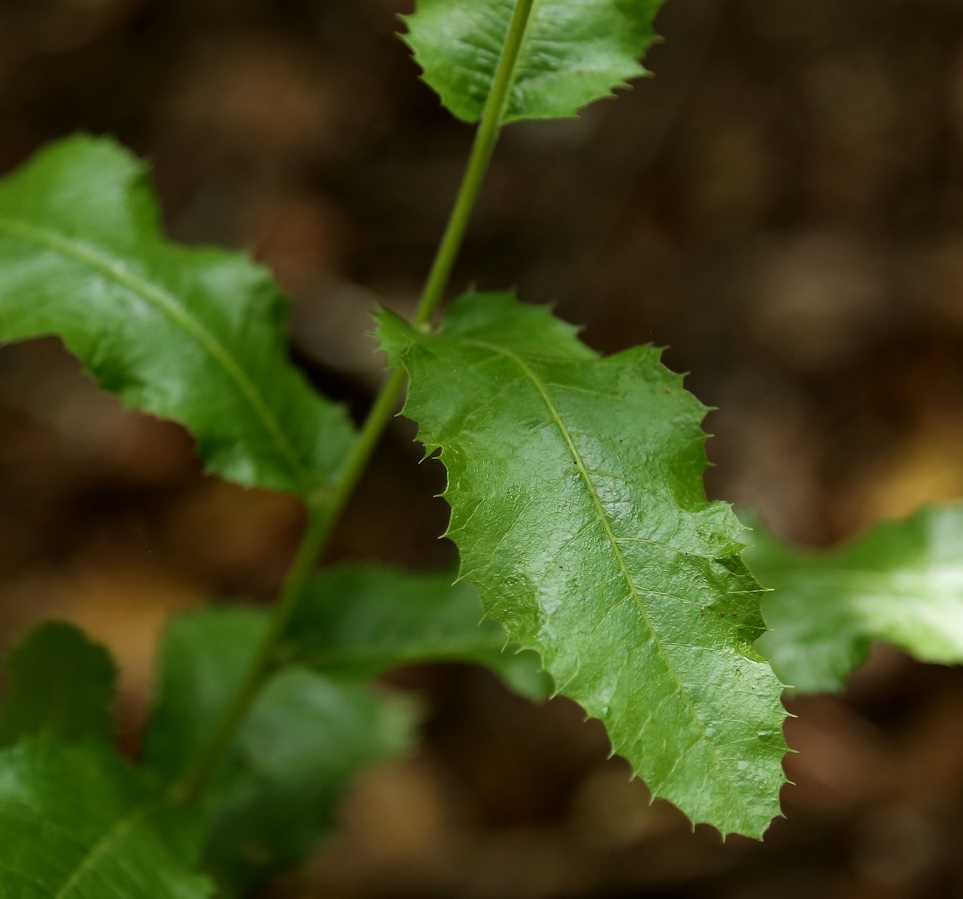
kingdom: Plantae
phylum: Tracheophyta
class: Magnoliopsida
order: Sapindales
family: Sapindaceae
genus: Pappea
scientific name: Pappea capensis
